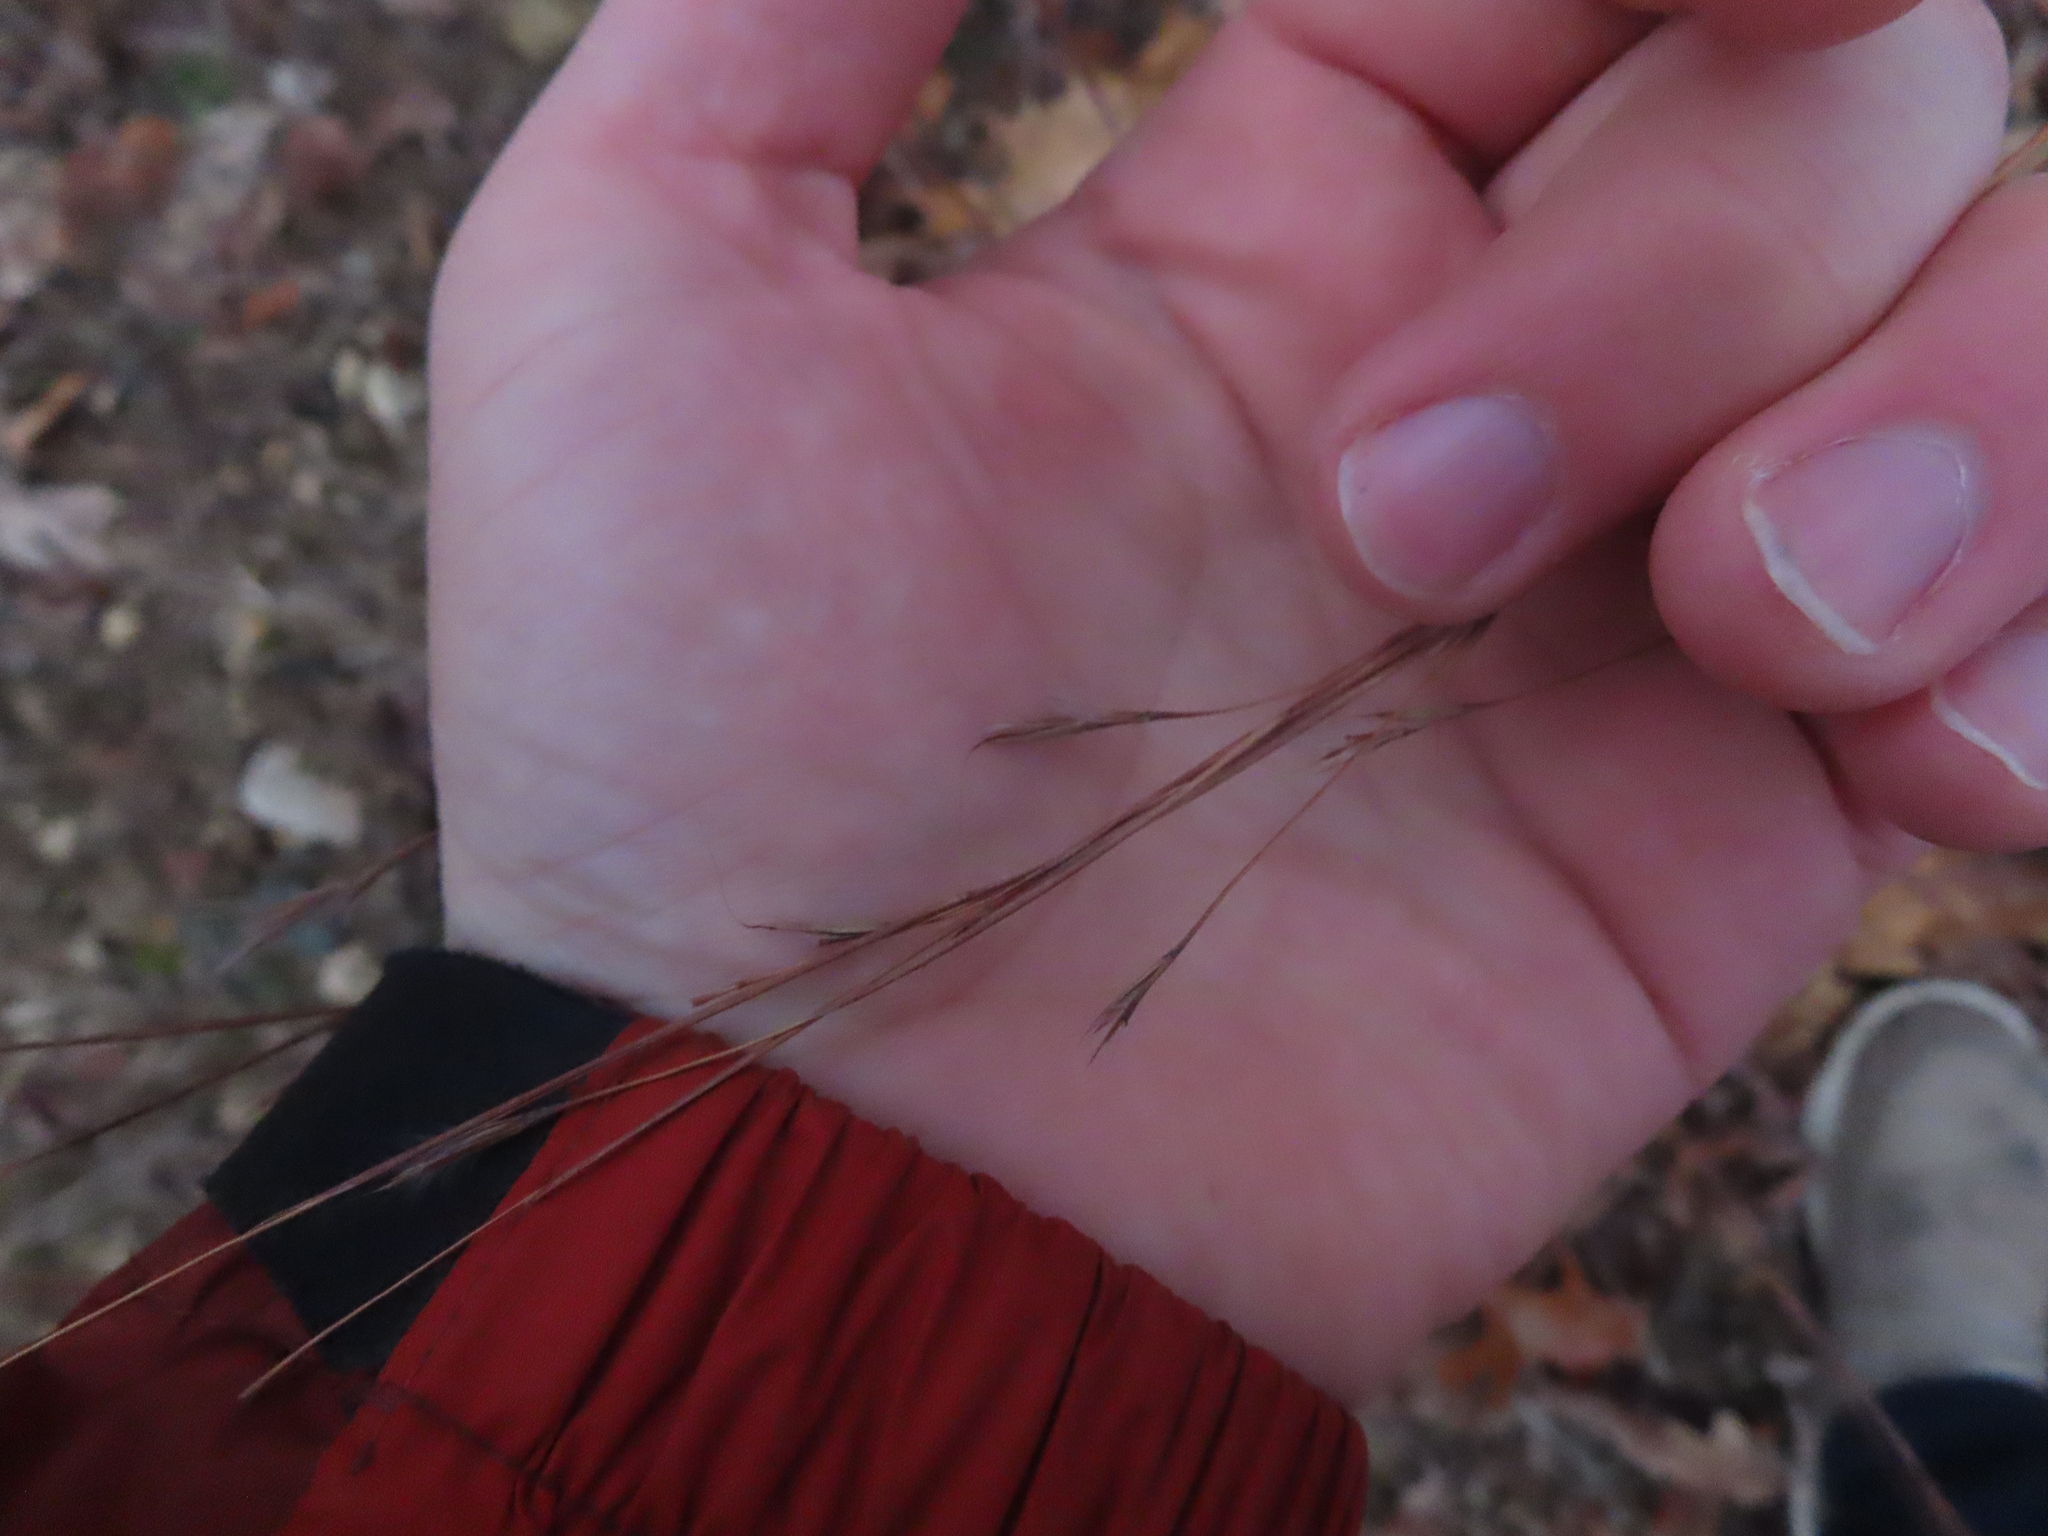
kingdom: Plantae
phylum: Tracheophyta
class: Liliopsida
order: Poales
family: Poaceae
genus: Schizachyrium
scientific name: Schizachyrium scoparium
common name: Little bluestem
